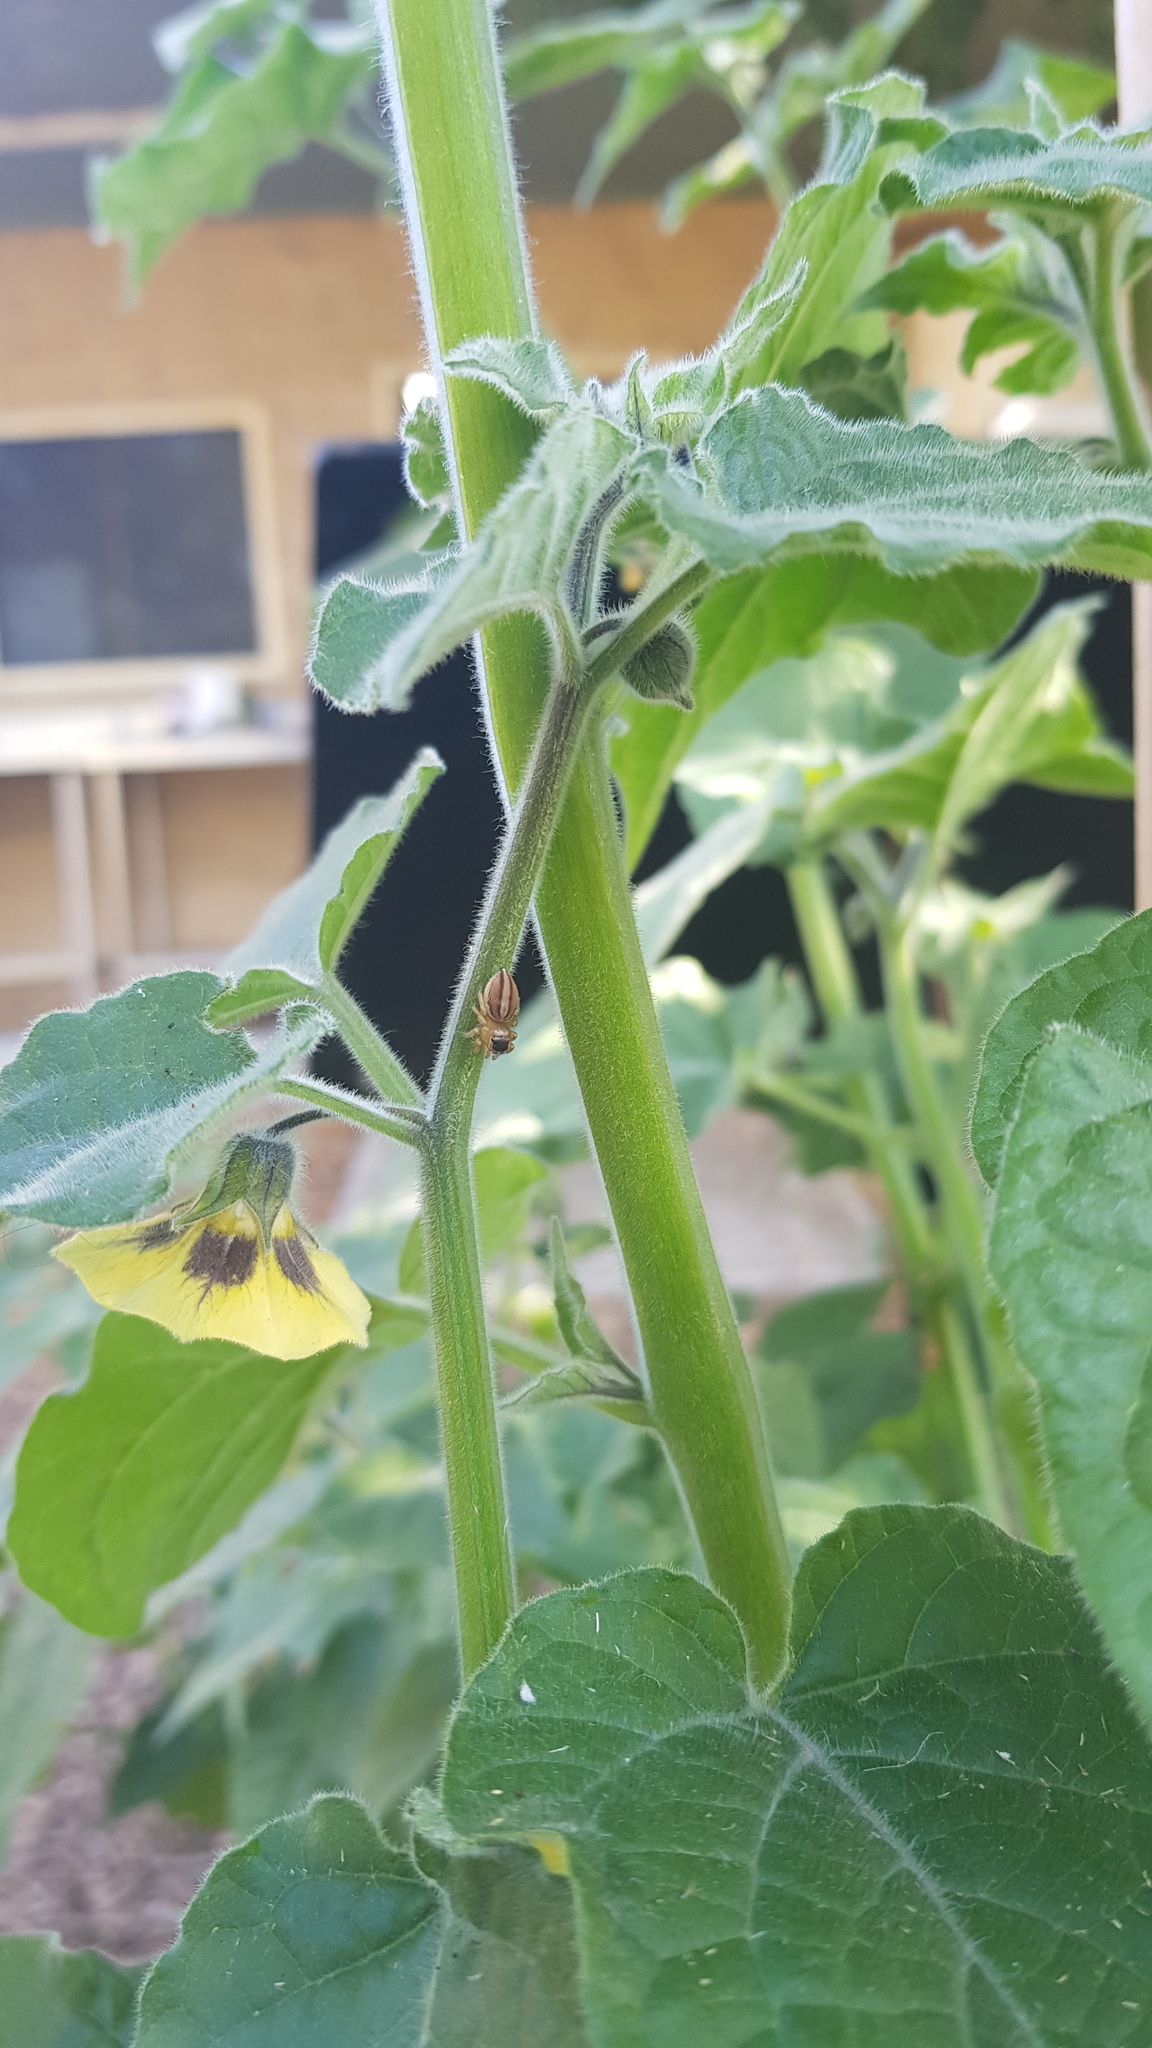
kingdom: Animalia
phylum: Arthropoda
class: Arachnida
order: Araneae
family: Salticidae
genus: Maratus
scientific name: Maratus scutulatus
